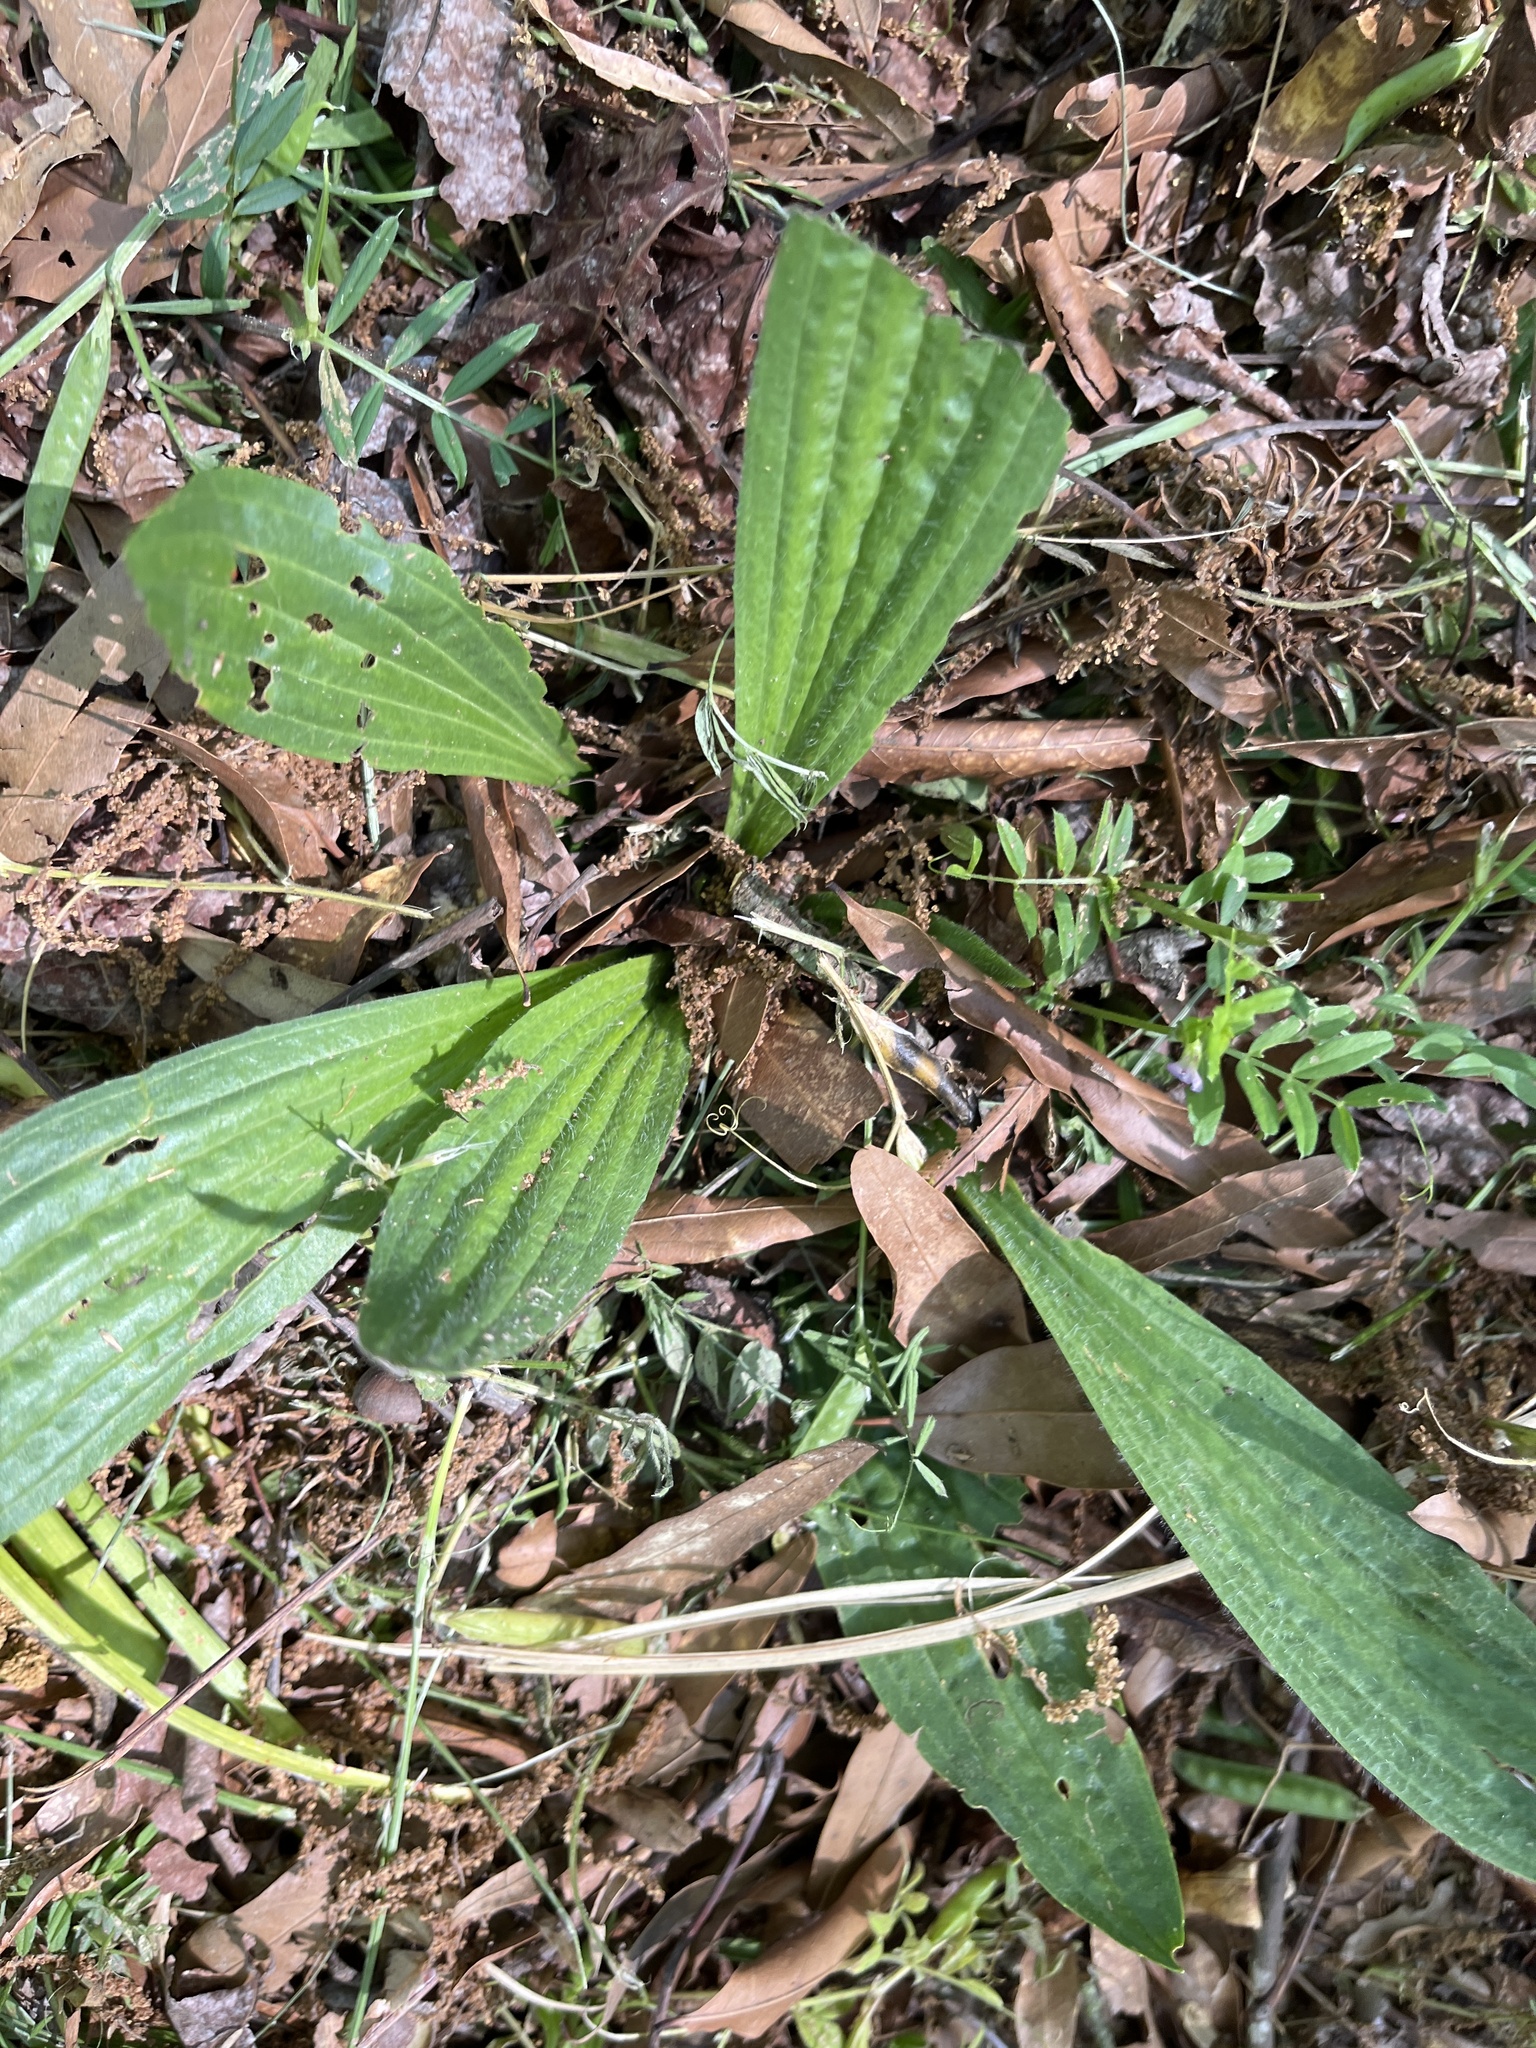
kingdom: Plantae
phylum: Tracheophyta
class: Magnoliopsida
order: Lamiales
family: Plantaginaceae
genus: Plantago
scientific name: Plantago lanceolata
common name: Ribwort plantain
